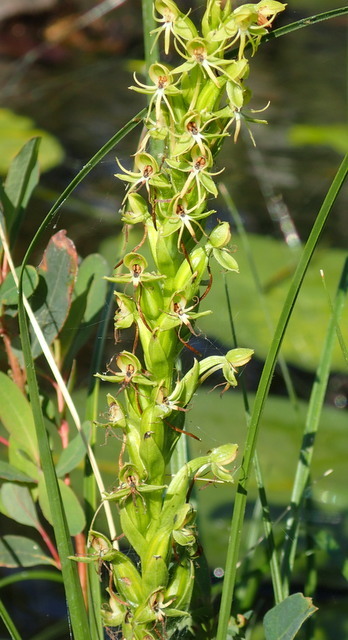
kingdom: Plantae
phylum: Tracheophyta
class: Liliopsida
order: Asparagales
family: Orchidaceae
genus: Habenaria
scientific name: Habenaria repens
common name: Water orchid
